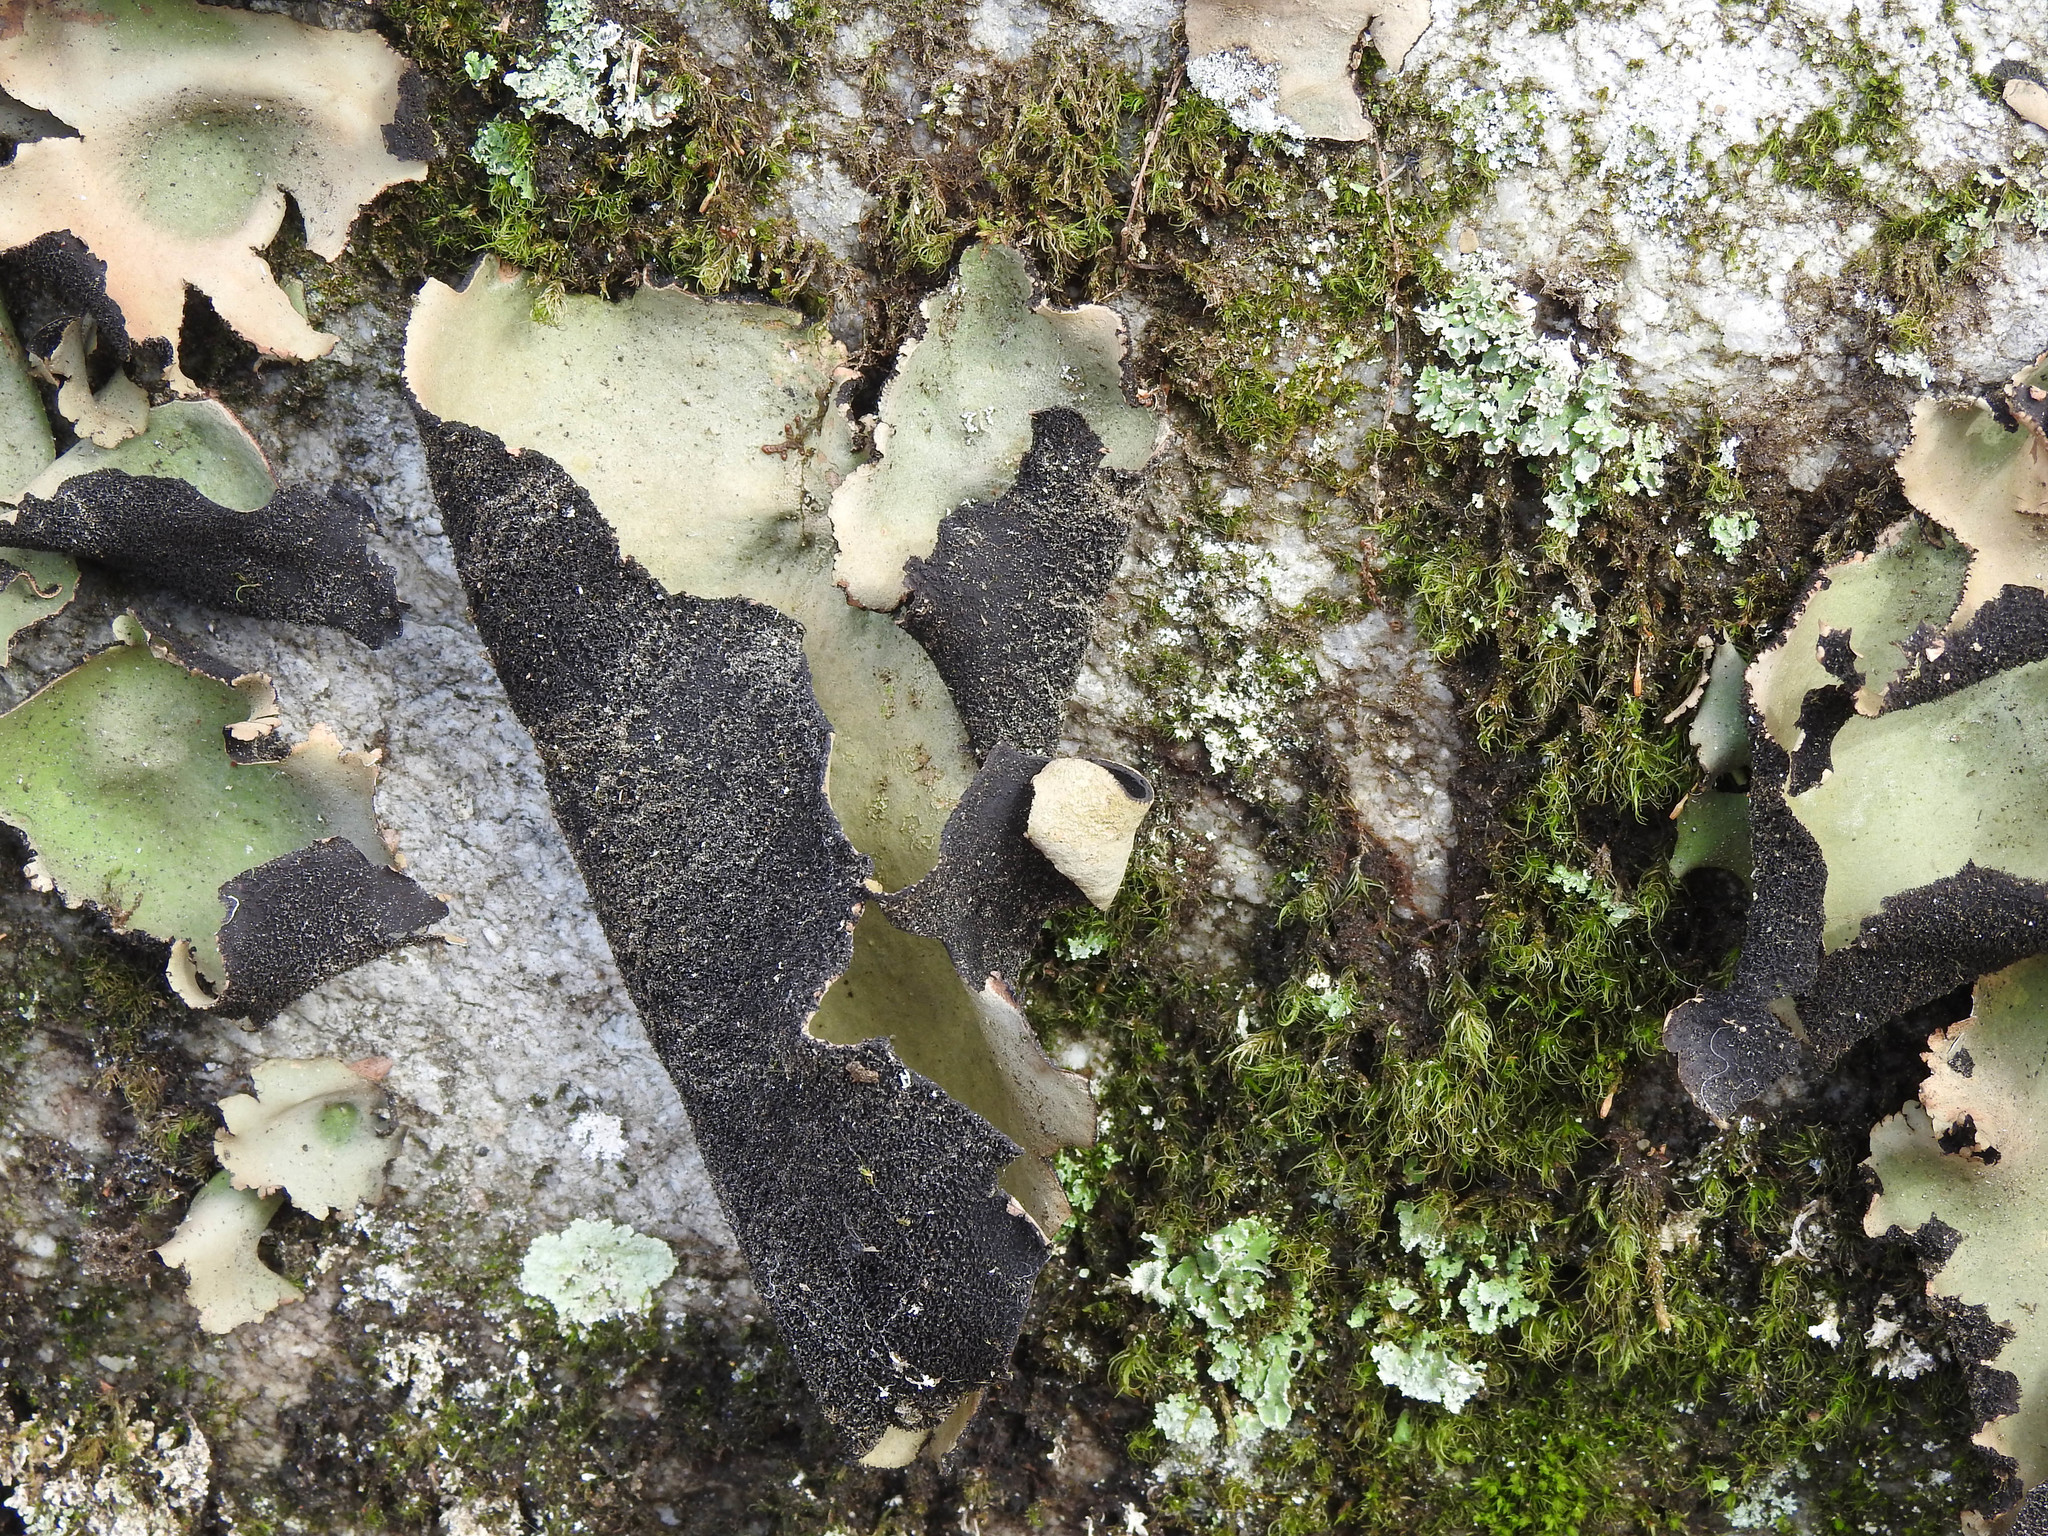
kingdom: Fungi
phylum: Ascomycota
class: Lecanoromycetes
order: Umbilicariales
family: Umbilicariaceae
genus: Umbilicaria
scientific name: Umbilicaria mammulata
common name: Smooth rock tripe
